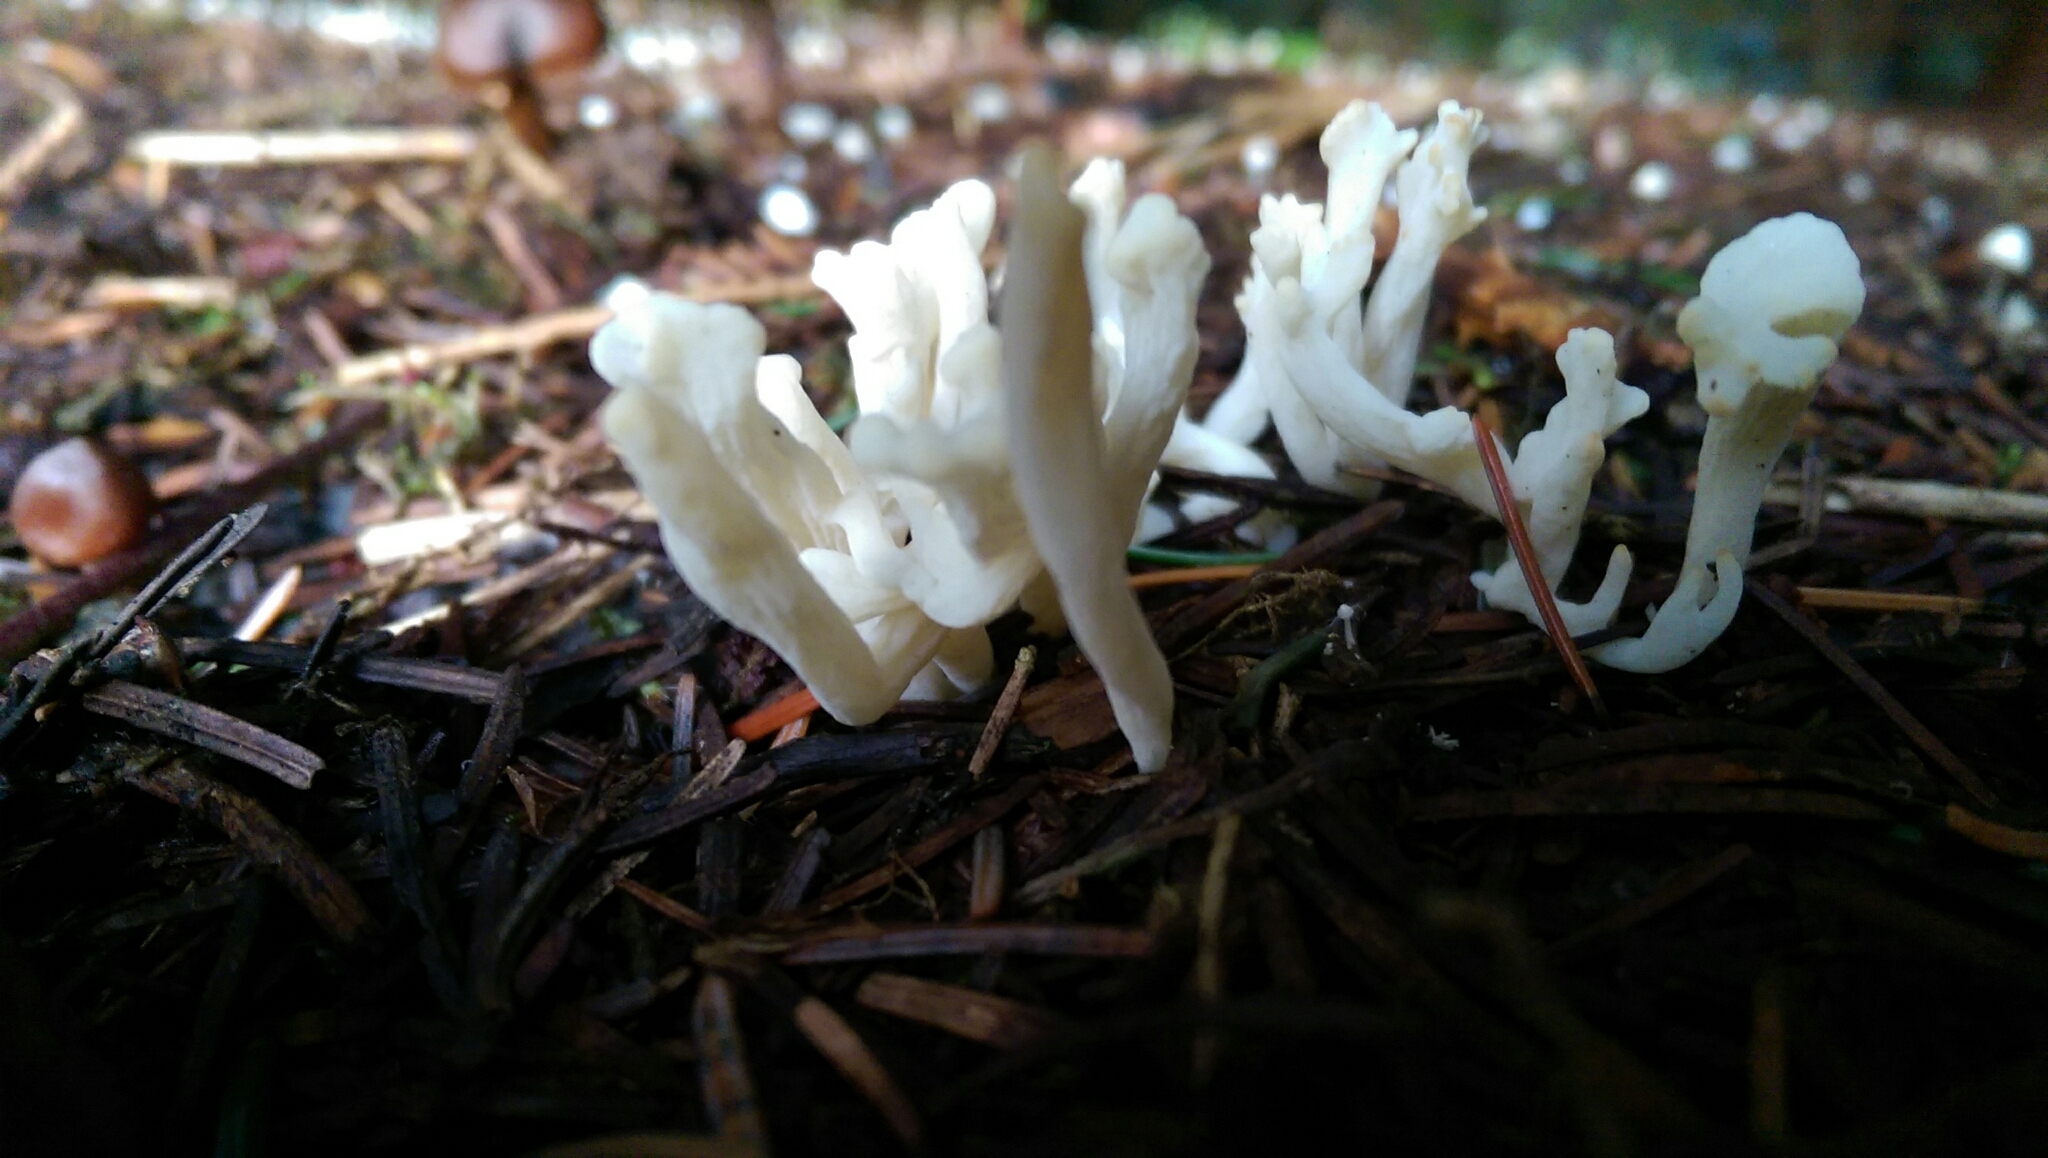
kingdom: Fungi
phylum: Basidiomycota
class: Agaricomycetes
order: Cantharellales
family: Hydnaceae
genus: Clavulina
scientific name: Clavulina rugosa
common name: Wrinkled club
